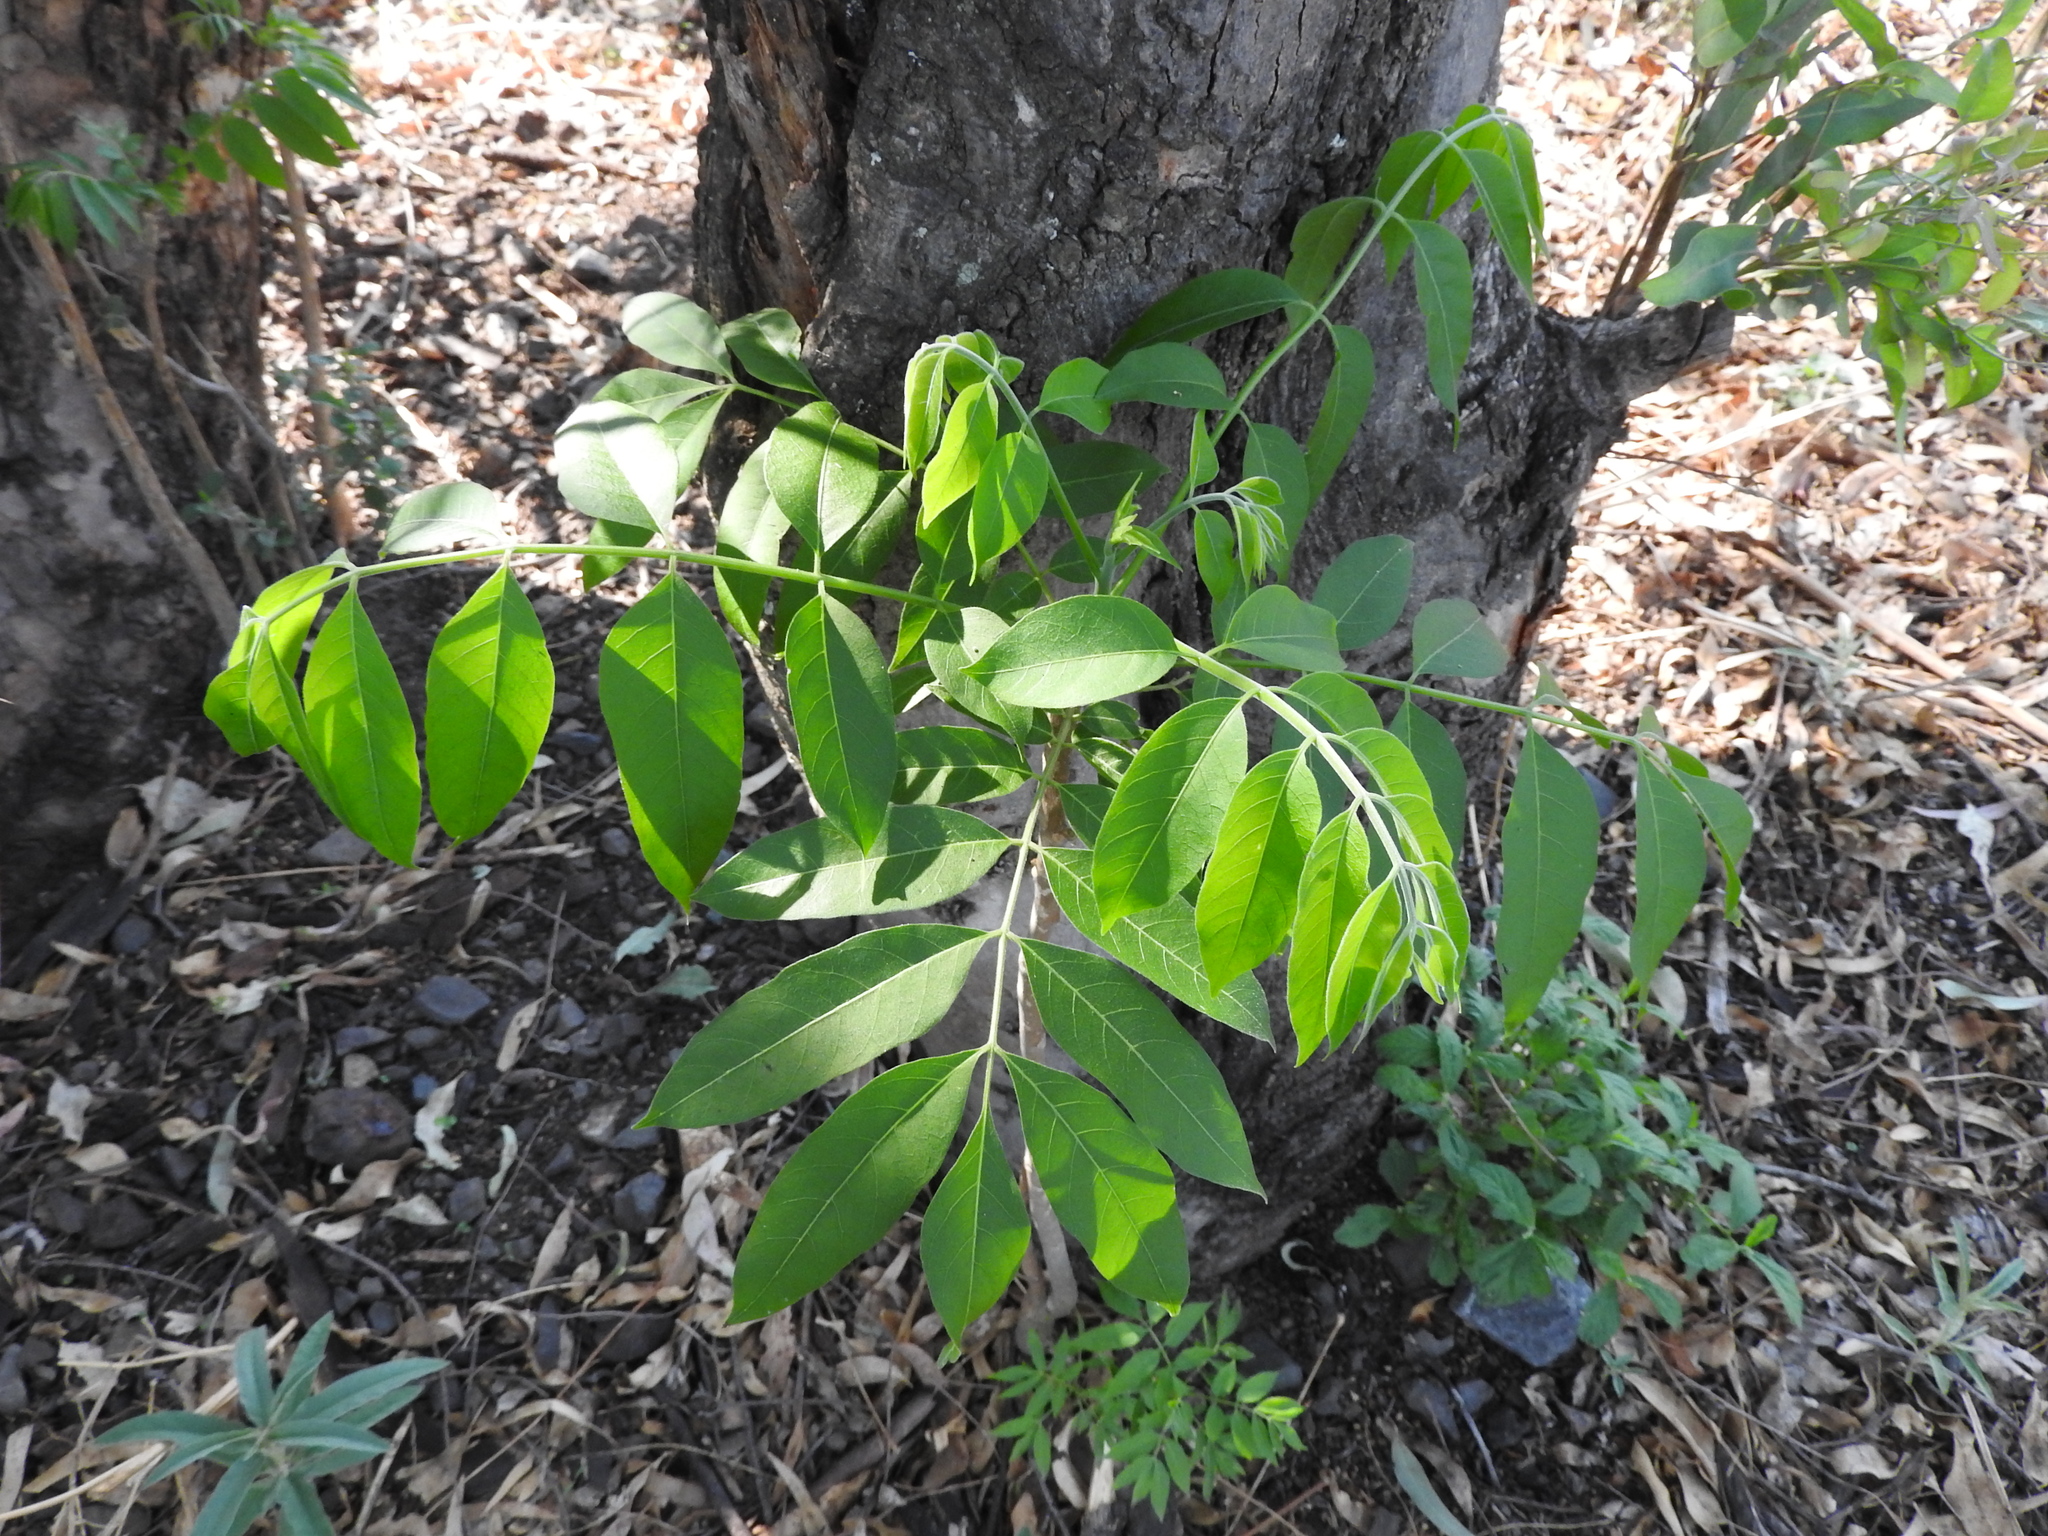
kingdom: Plantae
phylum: Tracheophyta
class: Magnoliopsida
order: Sapindales
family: Meliaceae
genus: Cedrela
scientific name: Cedrela odorata
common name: Red cedar
